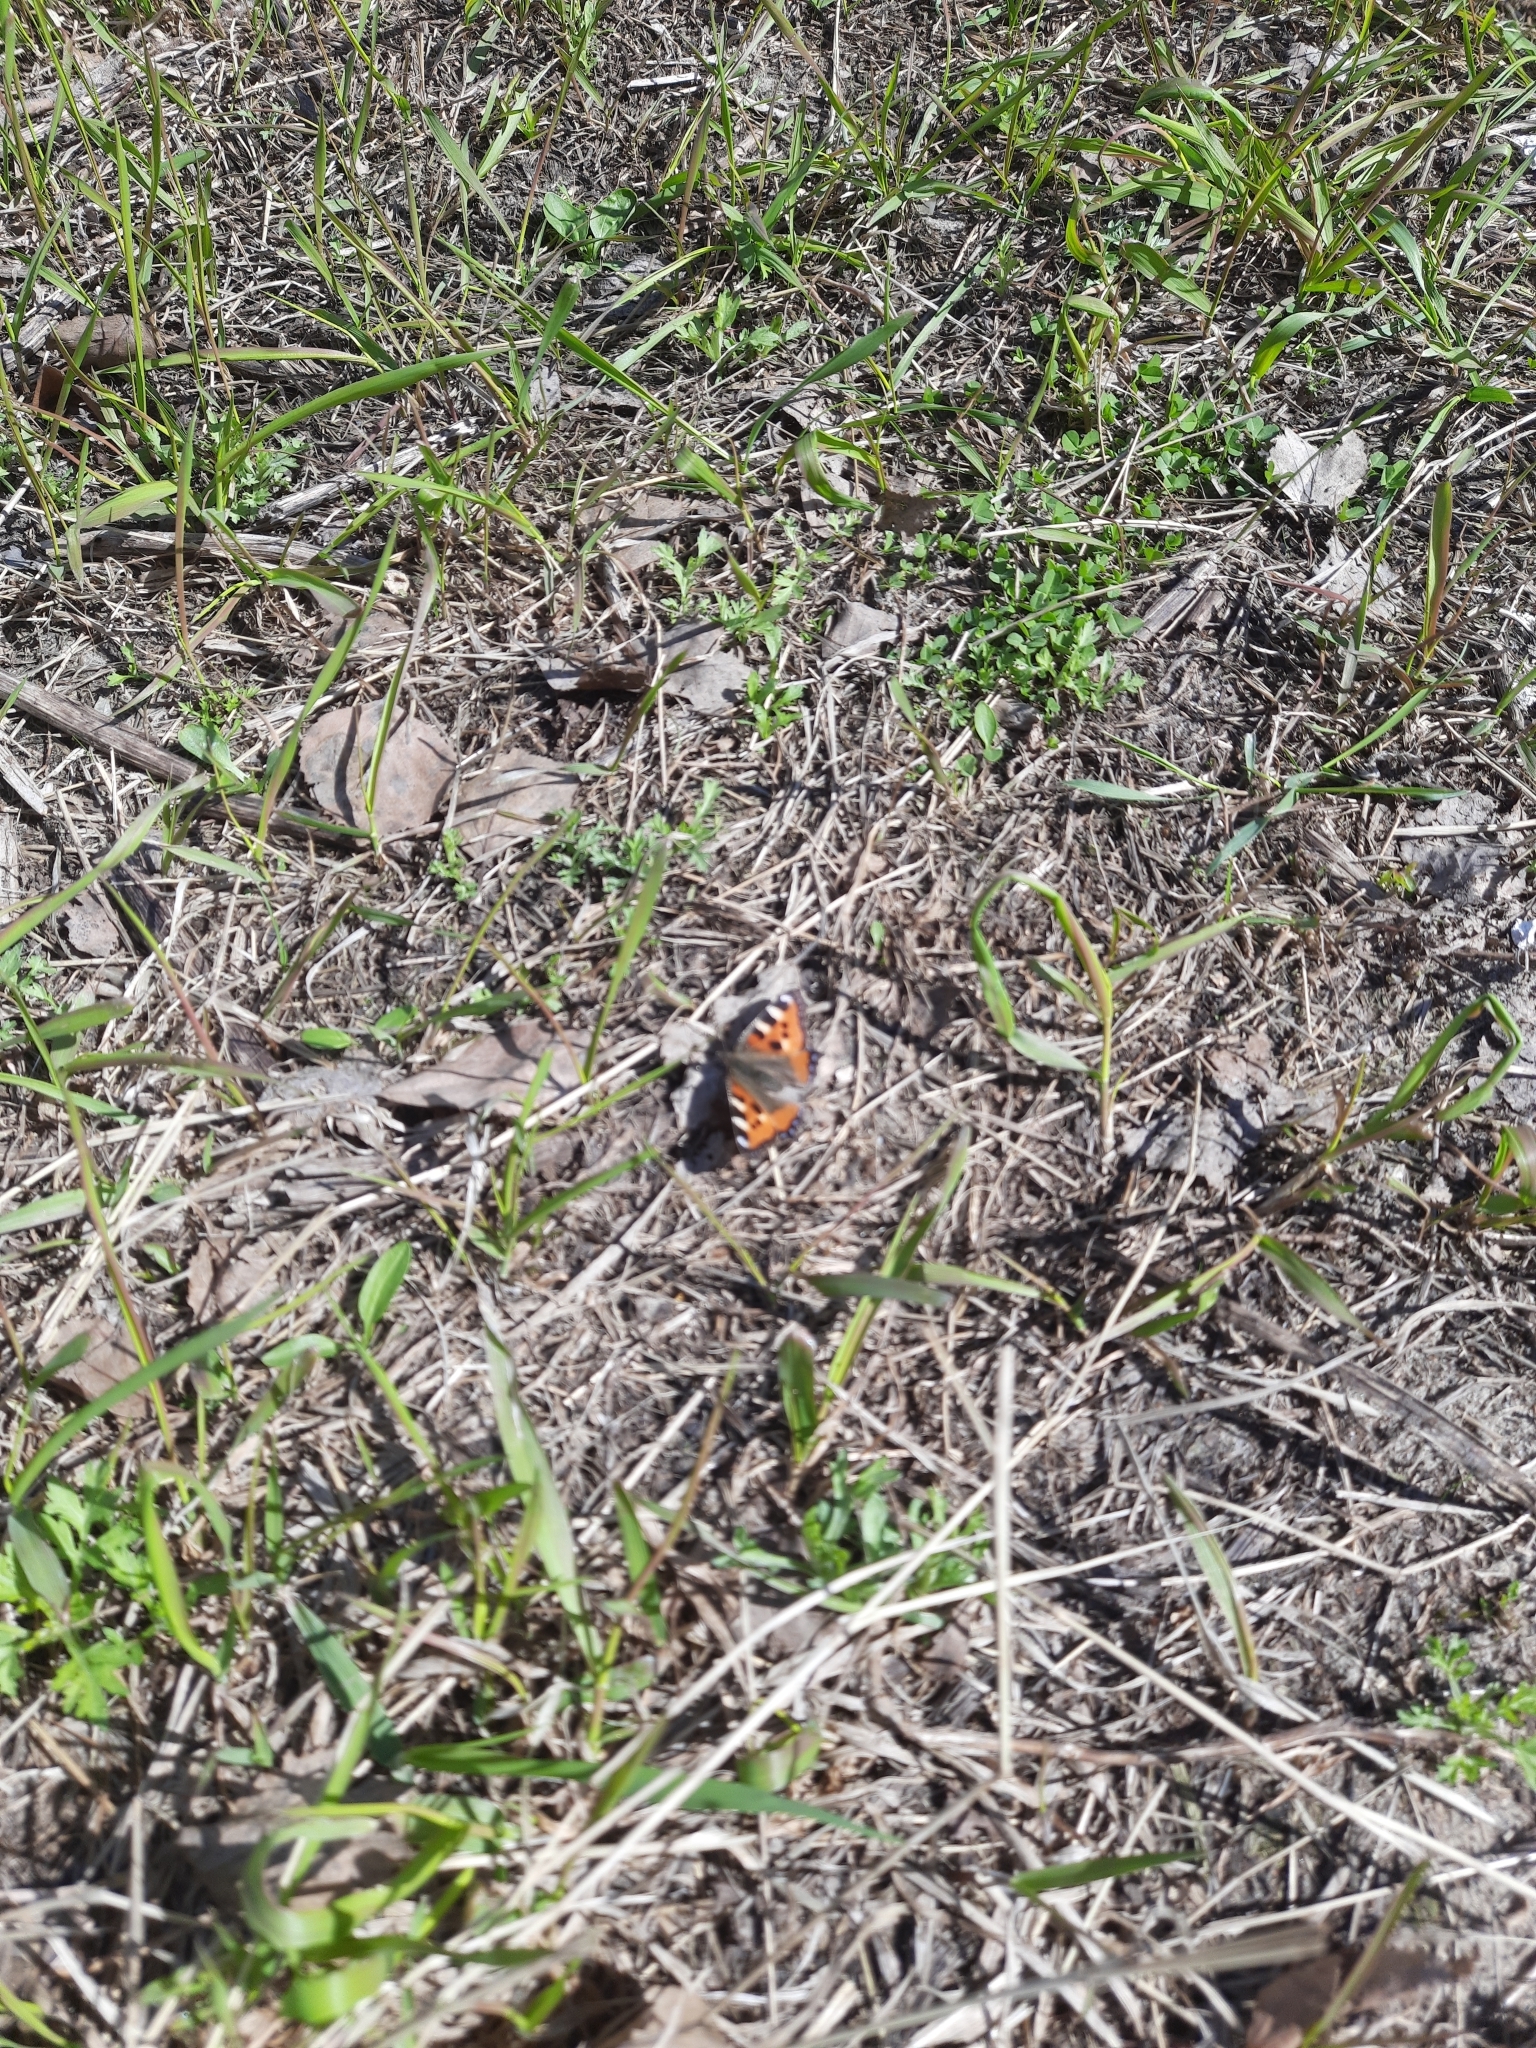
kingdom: Animalia
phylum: Arthropoda
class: Insecta
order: Lepidoptera
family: Nymphalidae
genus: Aglais
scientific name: Aglais urticae
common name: Small tortoiseshell
